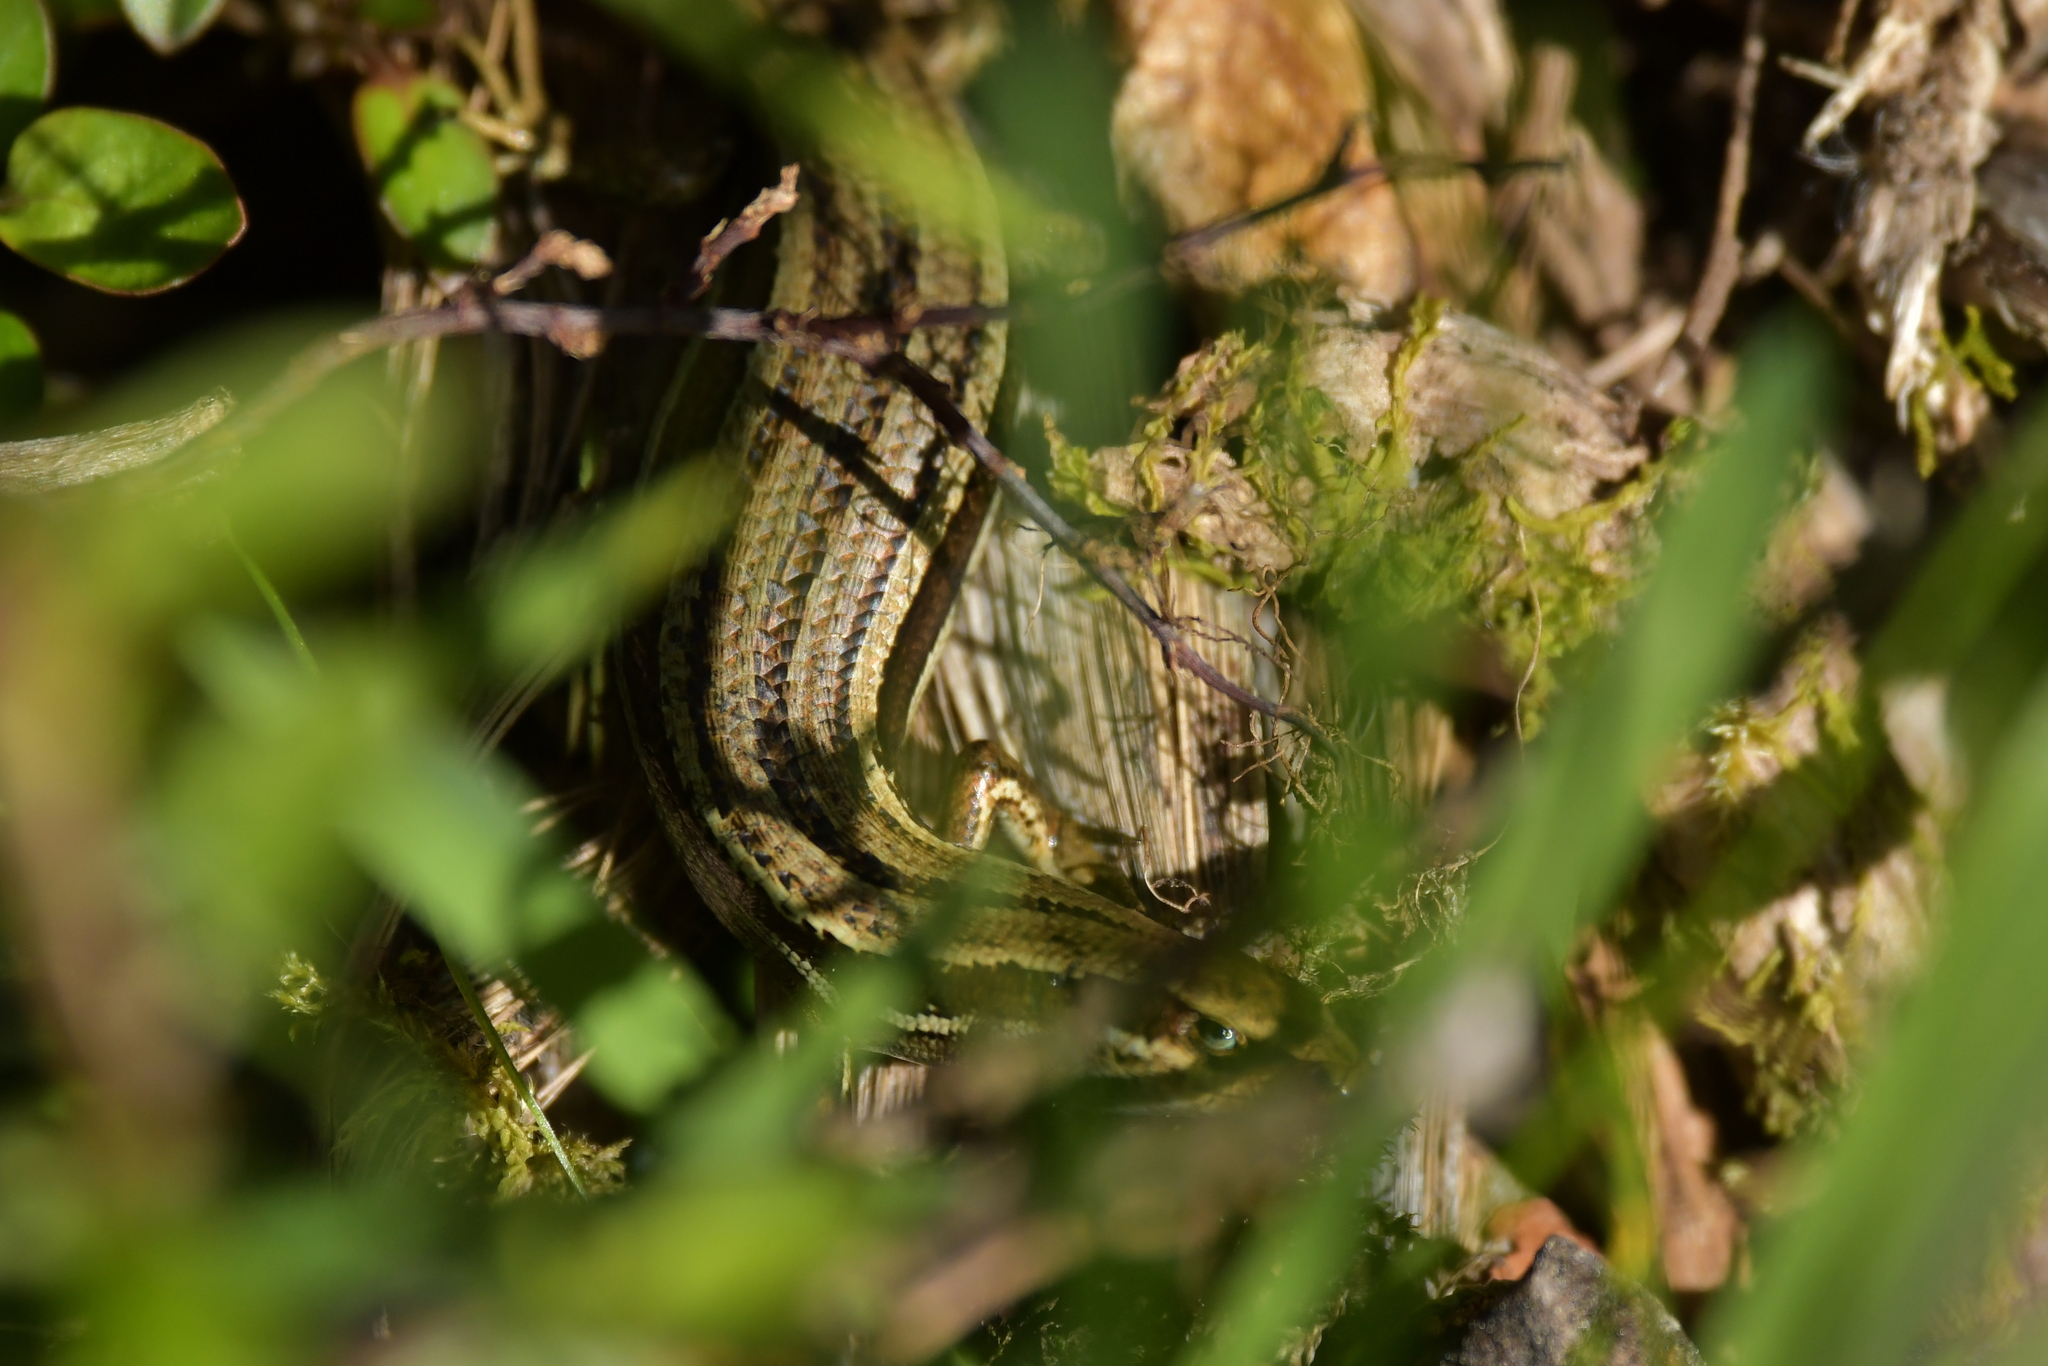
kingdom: Animalia
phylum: Chordata
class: Squamata
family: Scincidae
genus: Oligosoma
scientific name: Oligosoma polychroma
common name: Common new zealand skink
